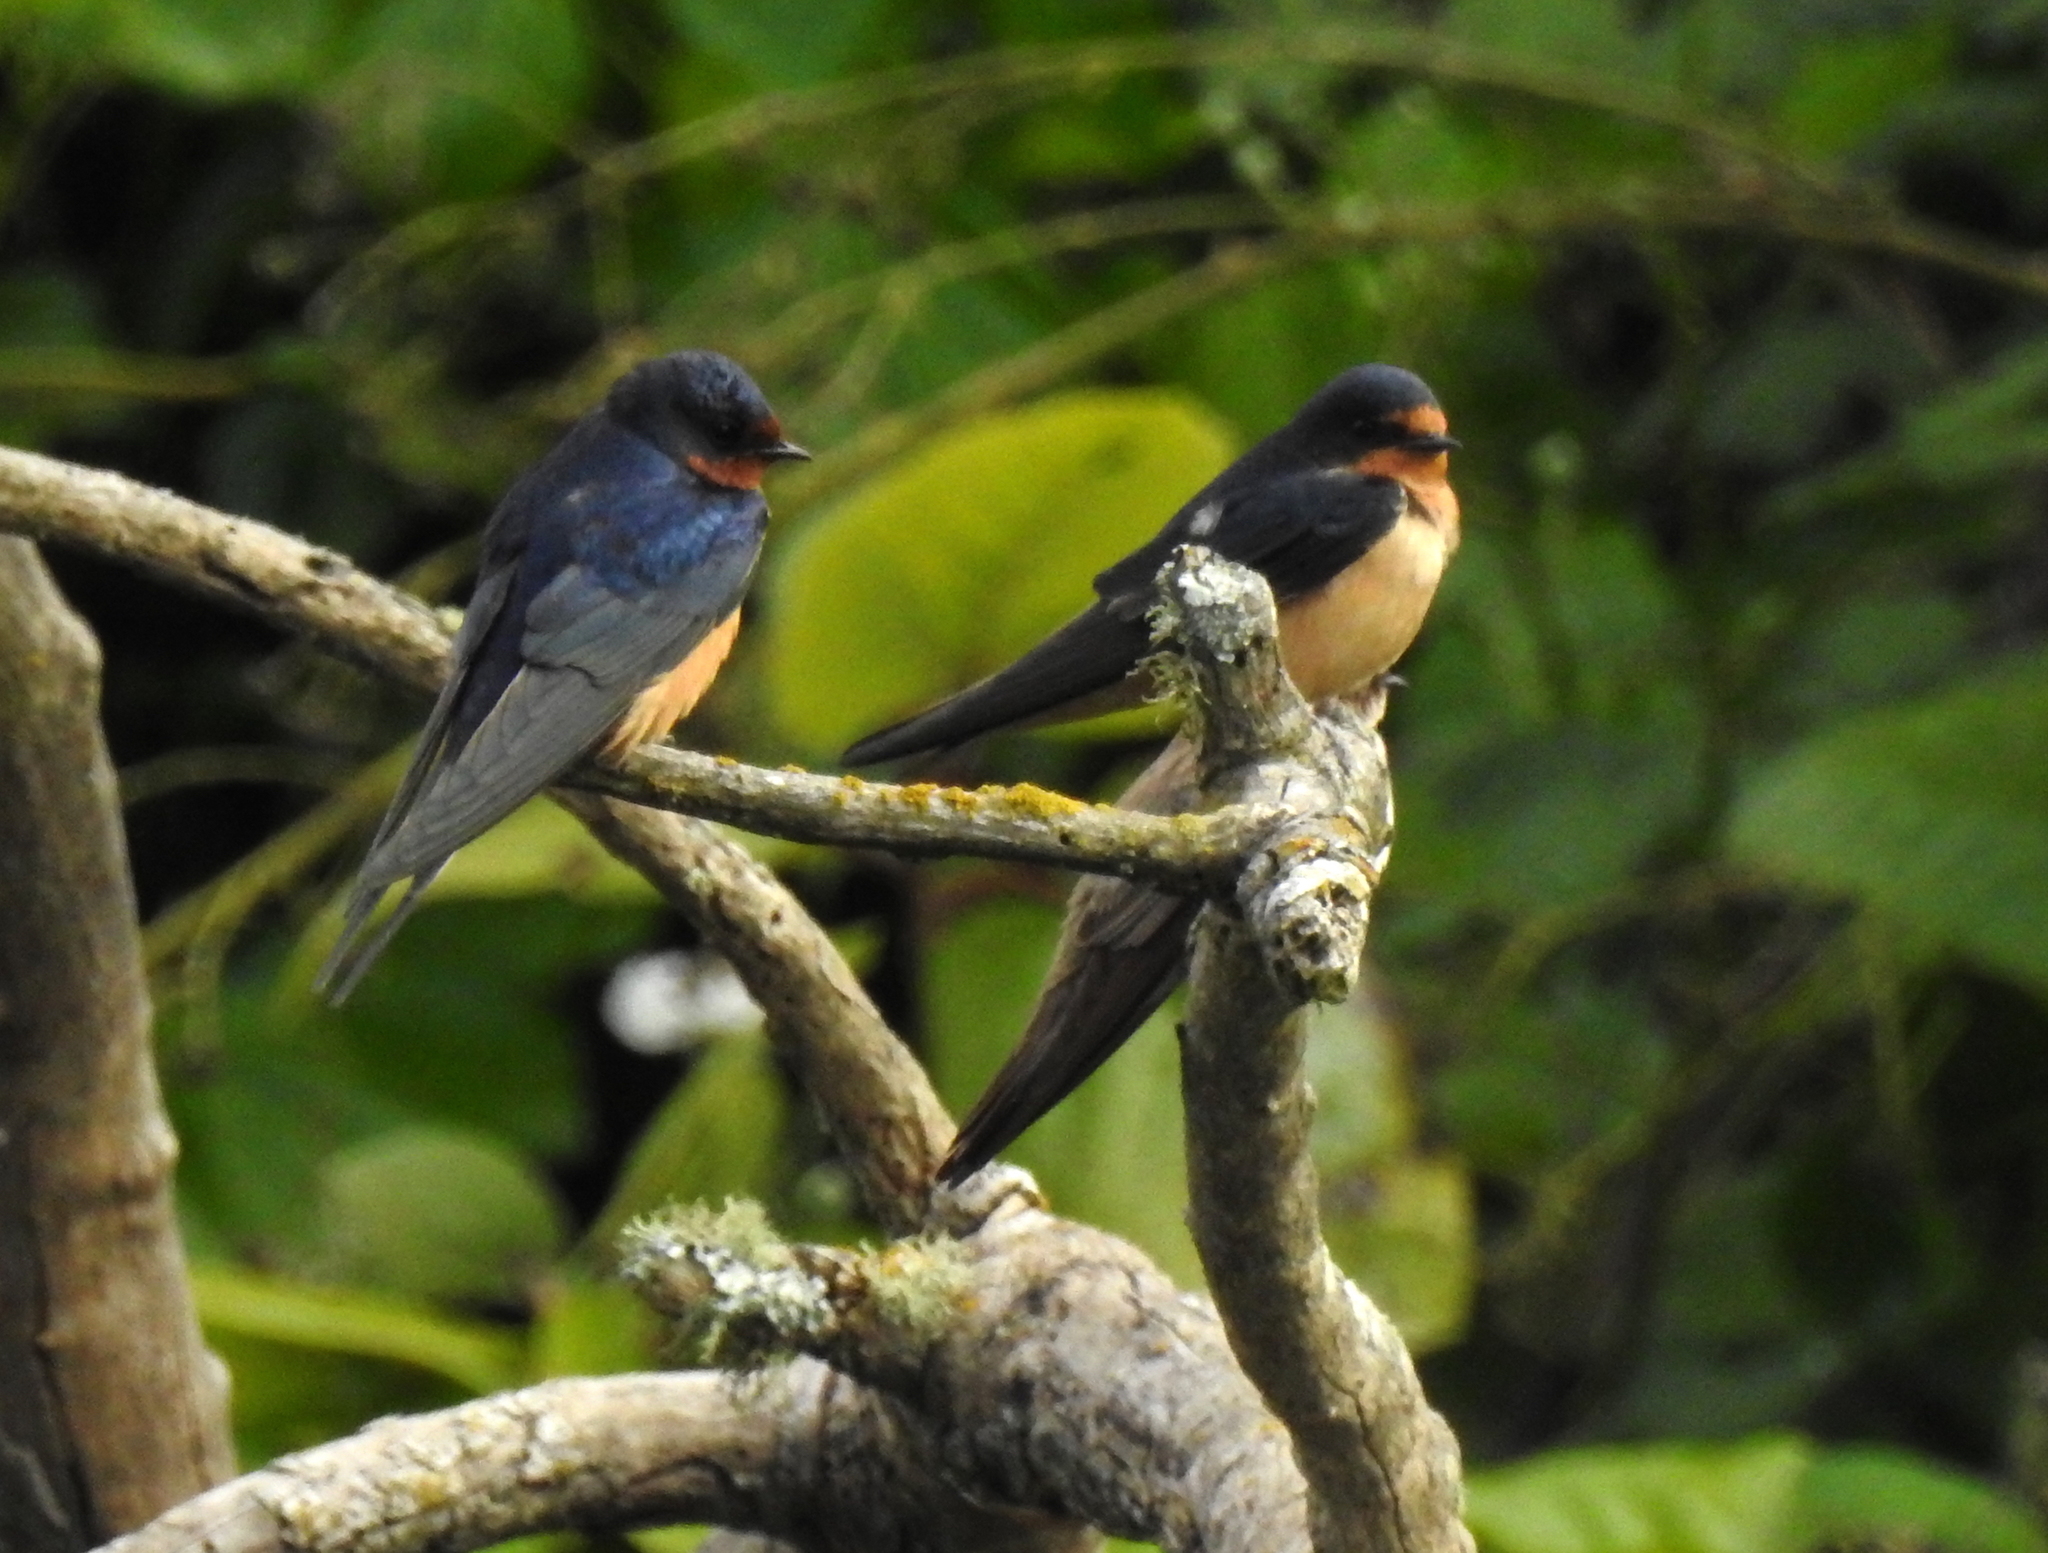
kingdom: Animalia
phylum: Chordata
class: Aves
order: Passeriformes
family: Hirundinidae
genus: Hirundo
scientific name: Hirundo rustica
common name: Barn swallow
